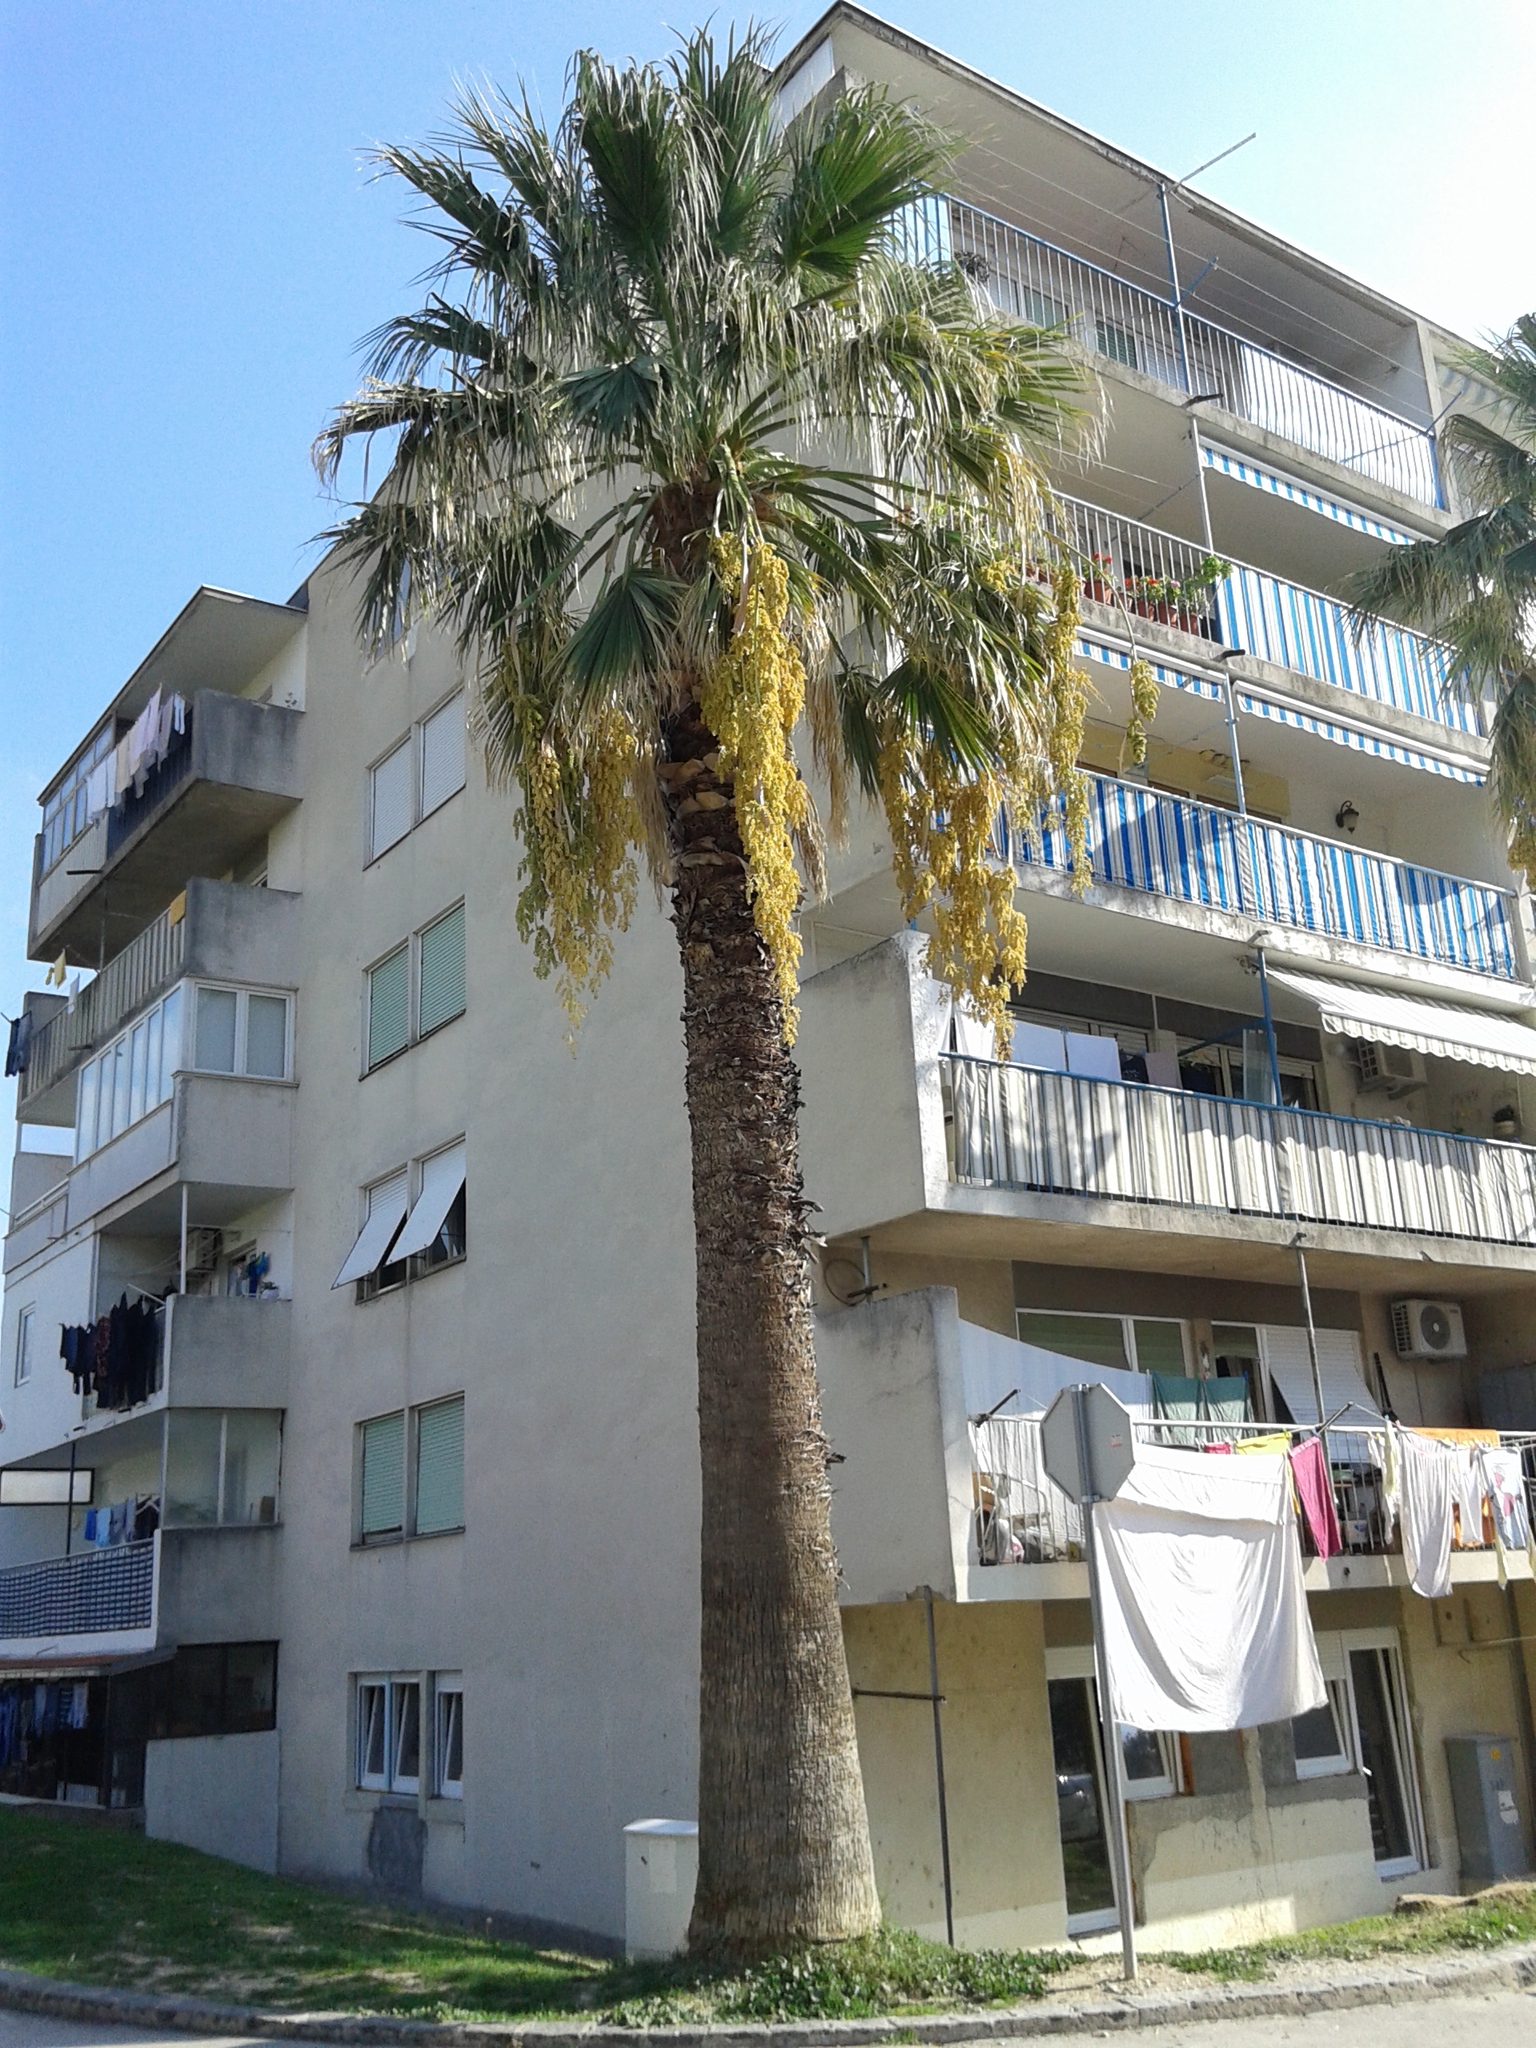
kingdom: Plantae
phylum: Tracheophyta
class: Liliopsida
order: Arecales
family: Arecaceae
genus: Washingtonia
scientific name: Washingtonia filifera
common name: California fan palm
